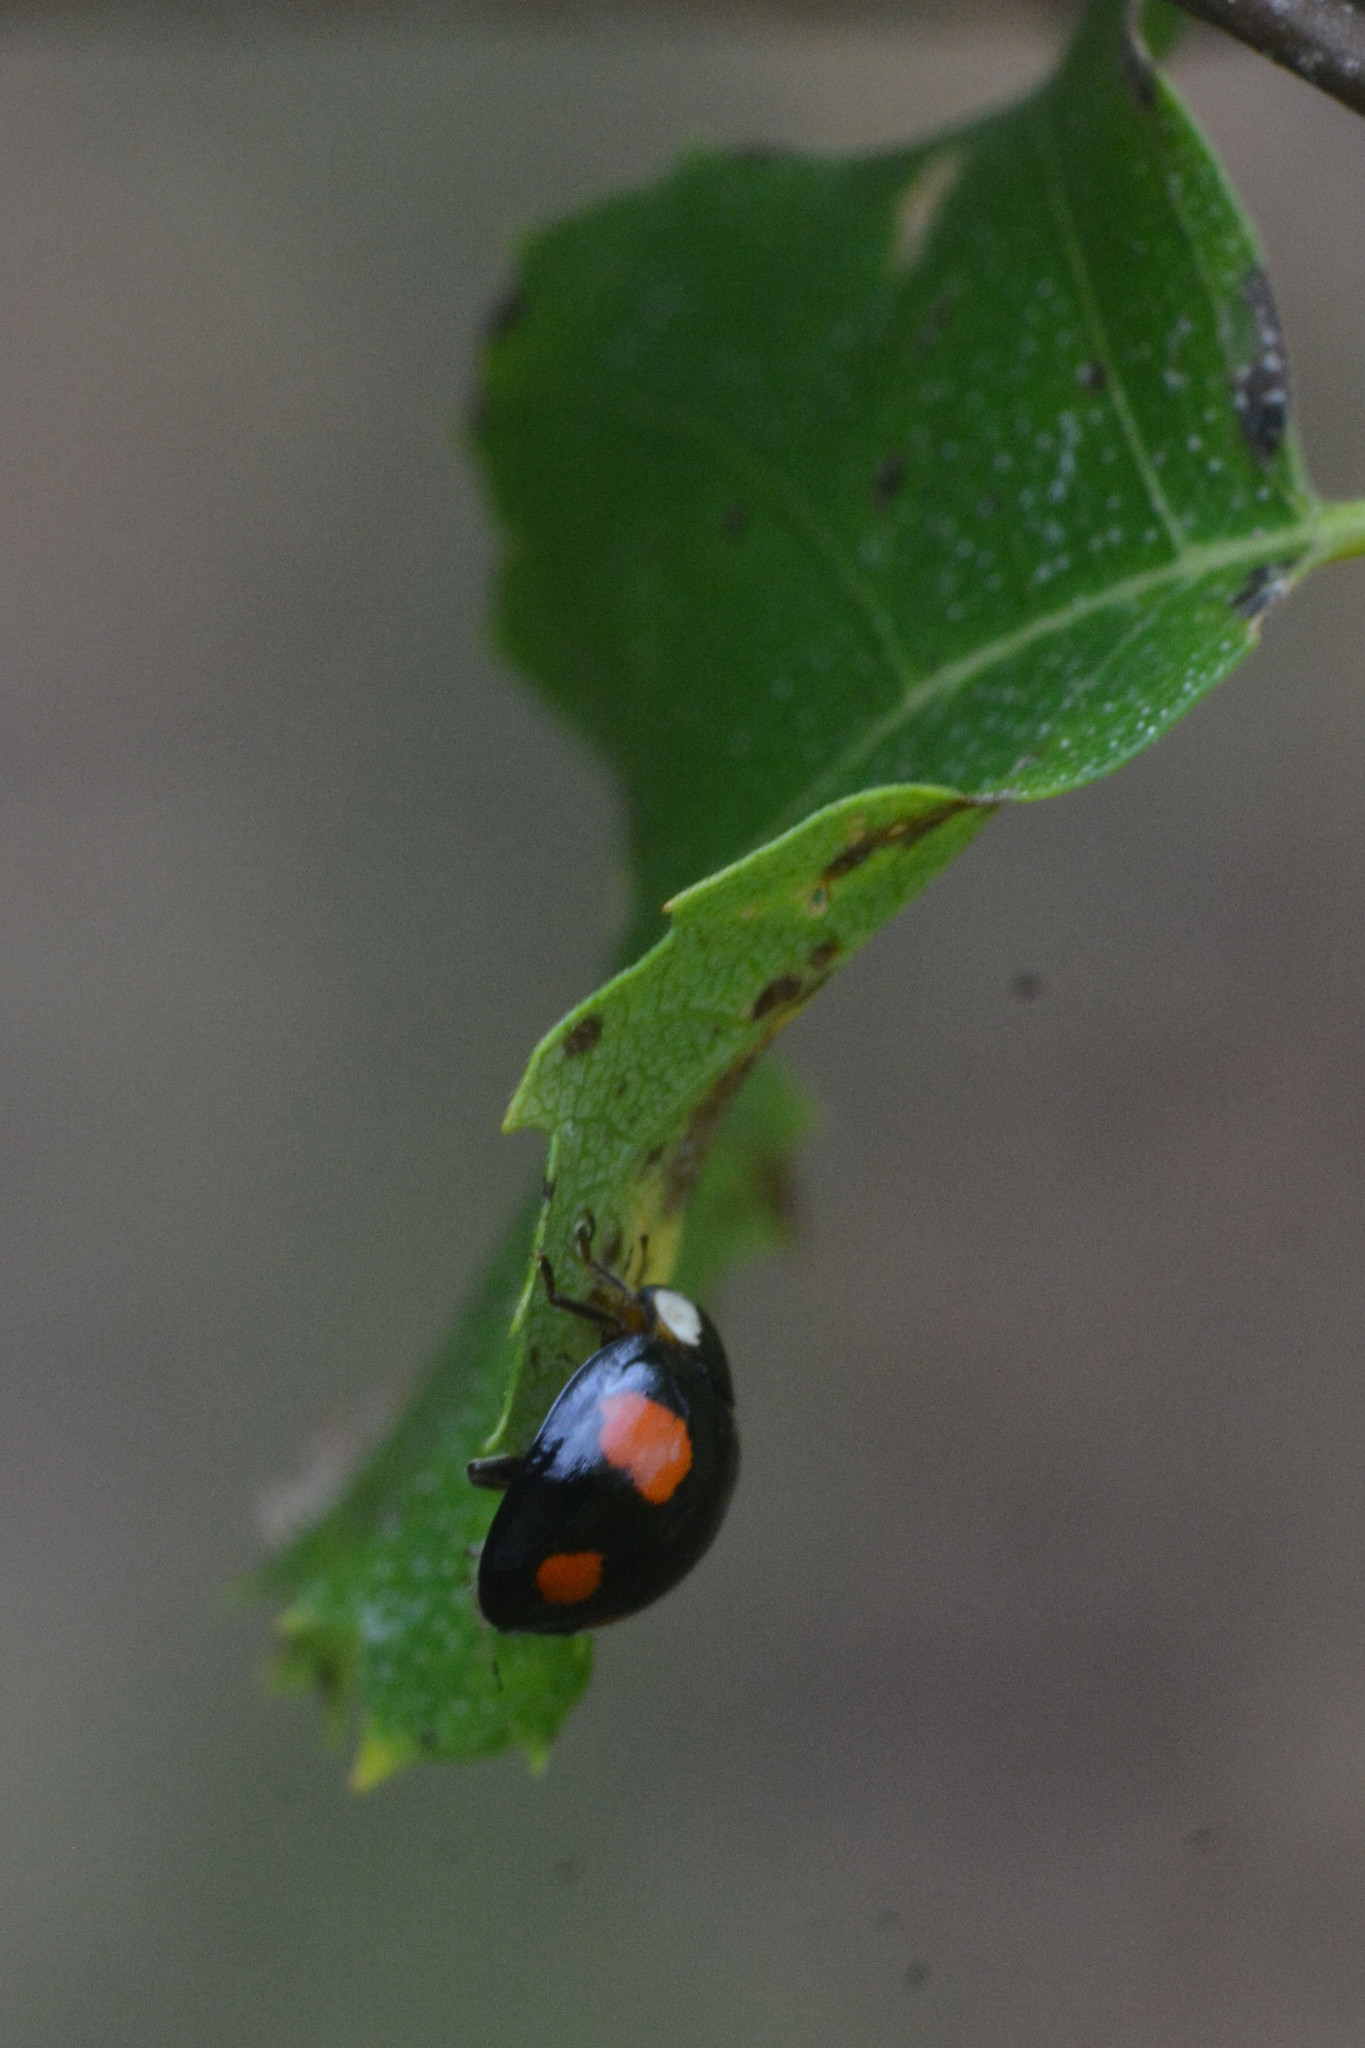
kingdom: Animalia
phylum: Arthropoda
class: Insecta
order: Coleoptera
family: Coccinellidae
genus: Harmonia
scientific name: Harmonia axyridis
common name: Harlequin ladybird
